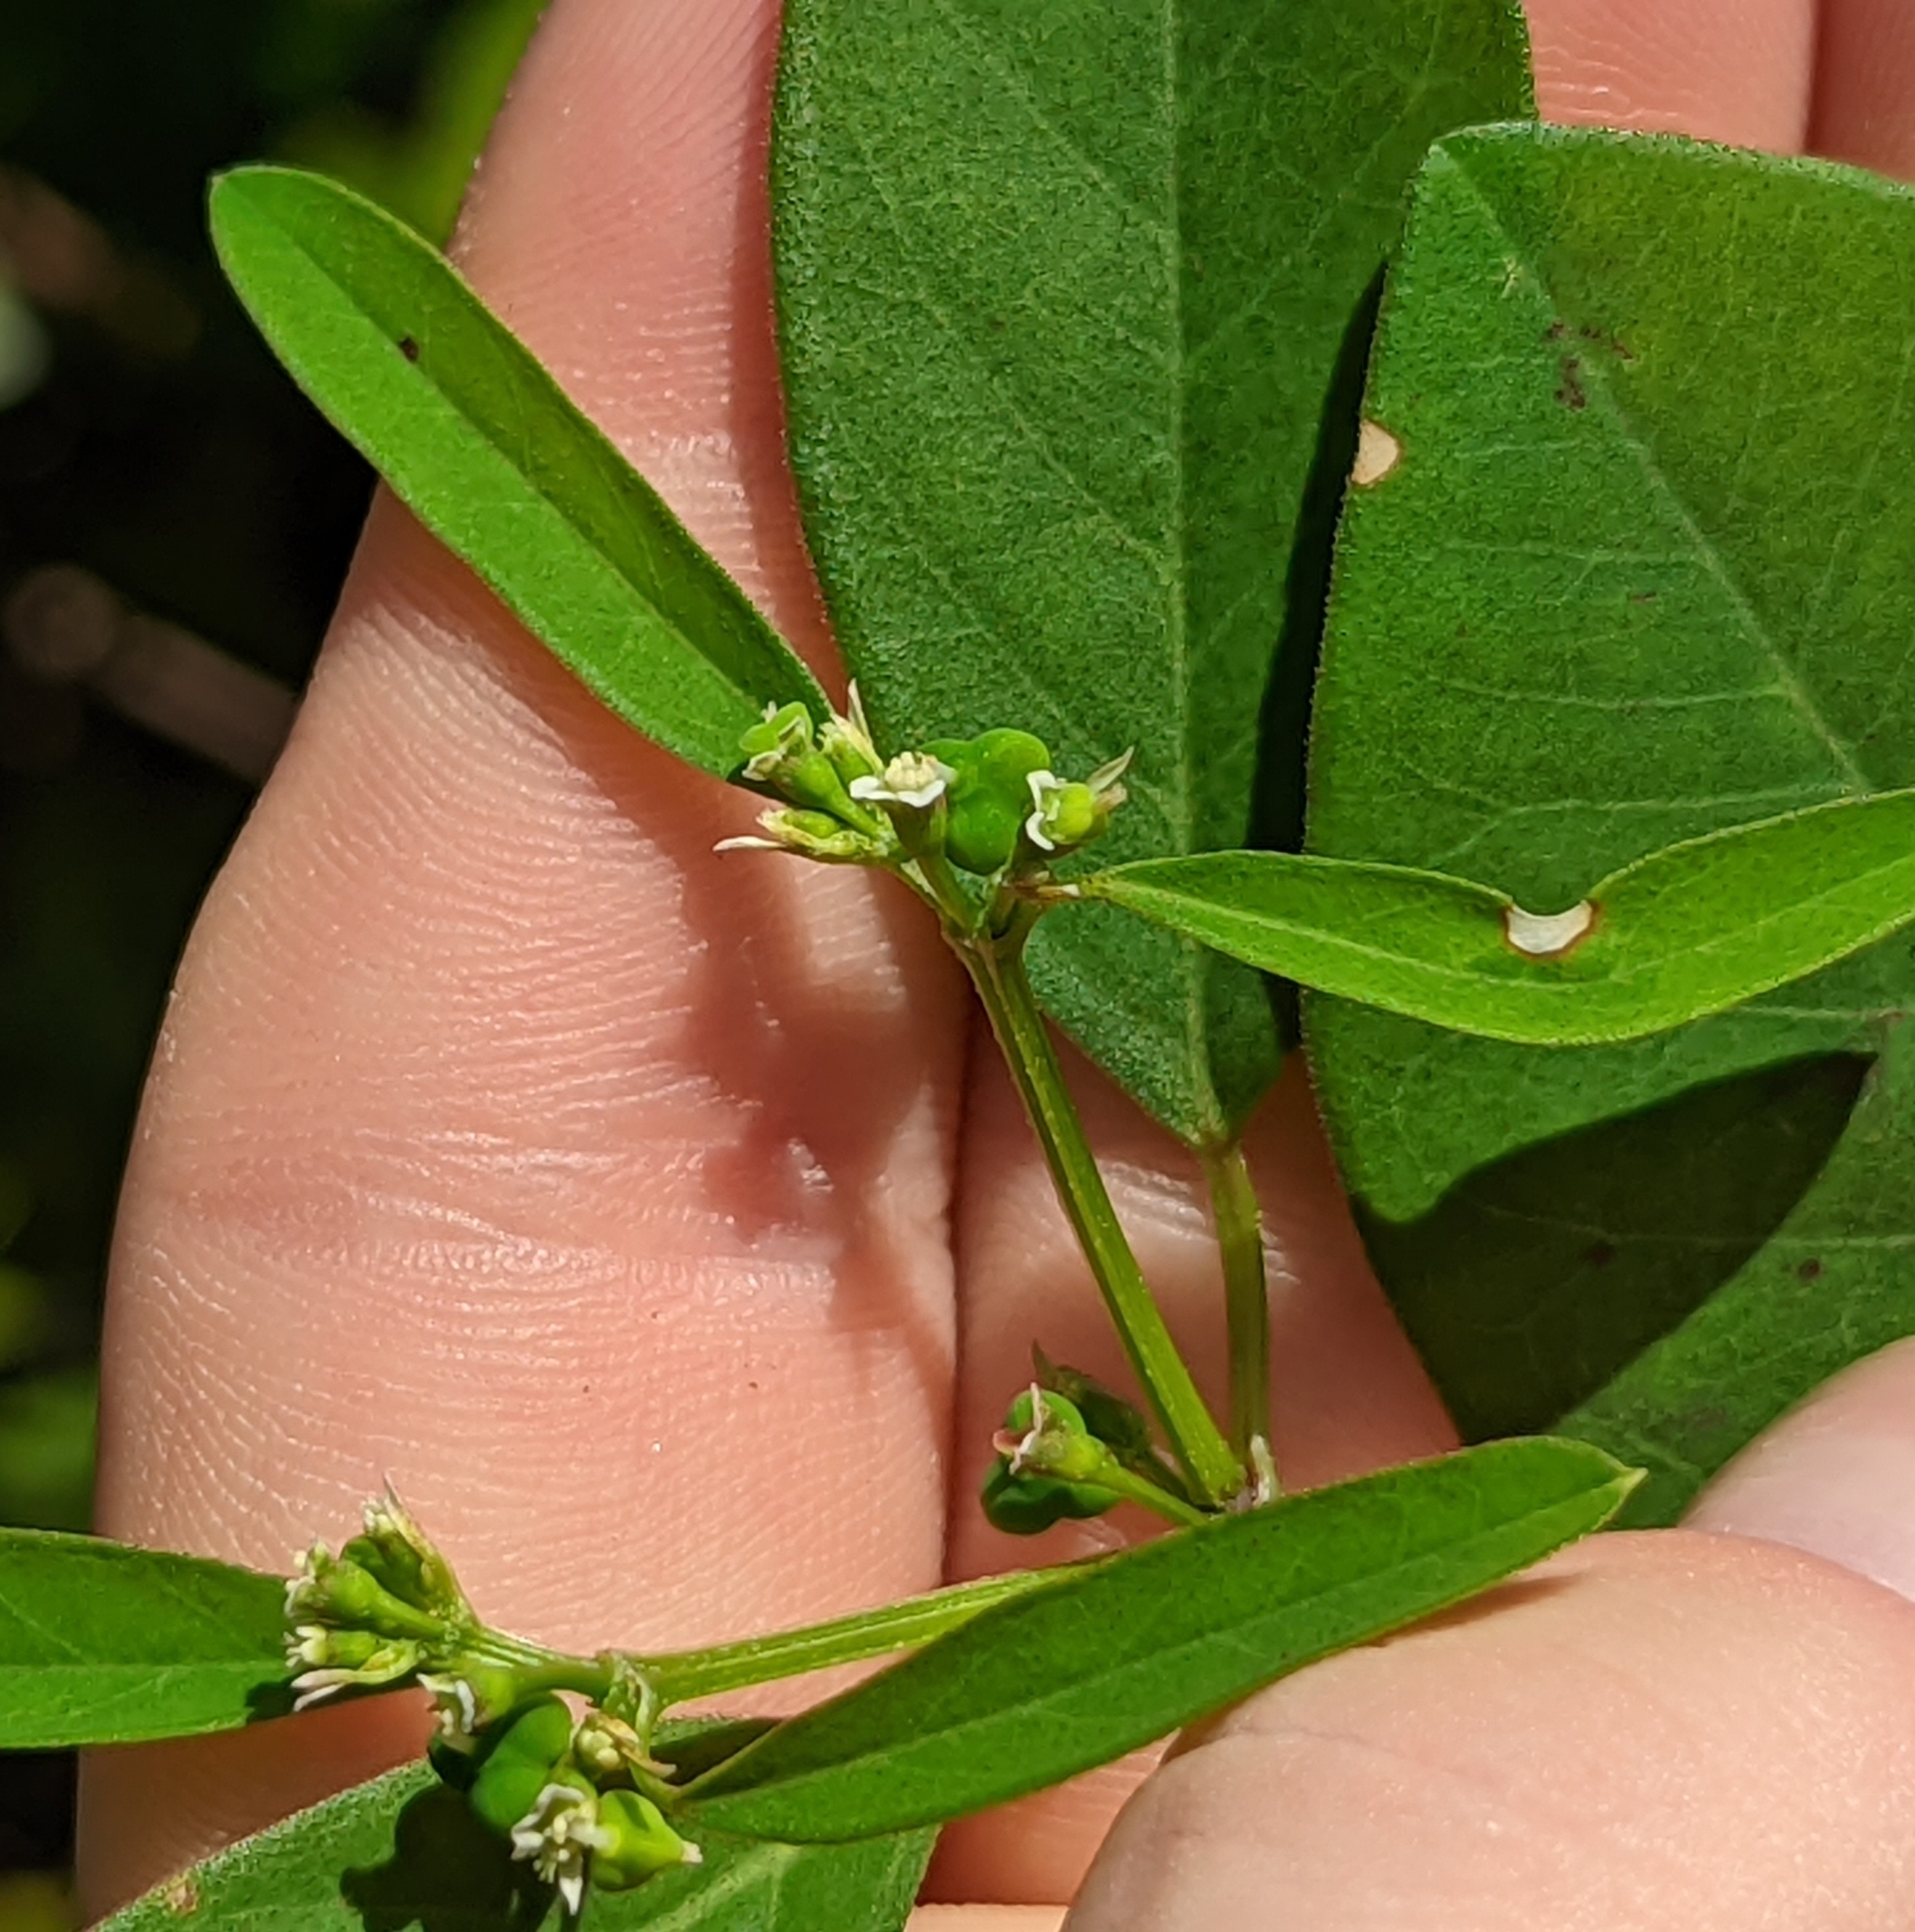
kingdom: Plantae
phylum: Tracheophyta
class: Magnoliopsida
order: Malpighiales
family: Euphorbiaceae
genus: Euphorbia
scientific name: Euphorbia graminea
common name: Grassleaf spurge
